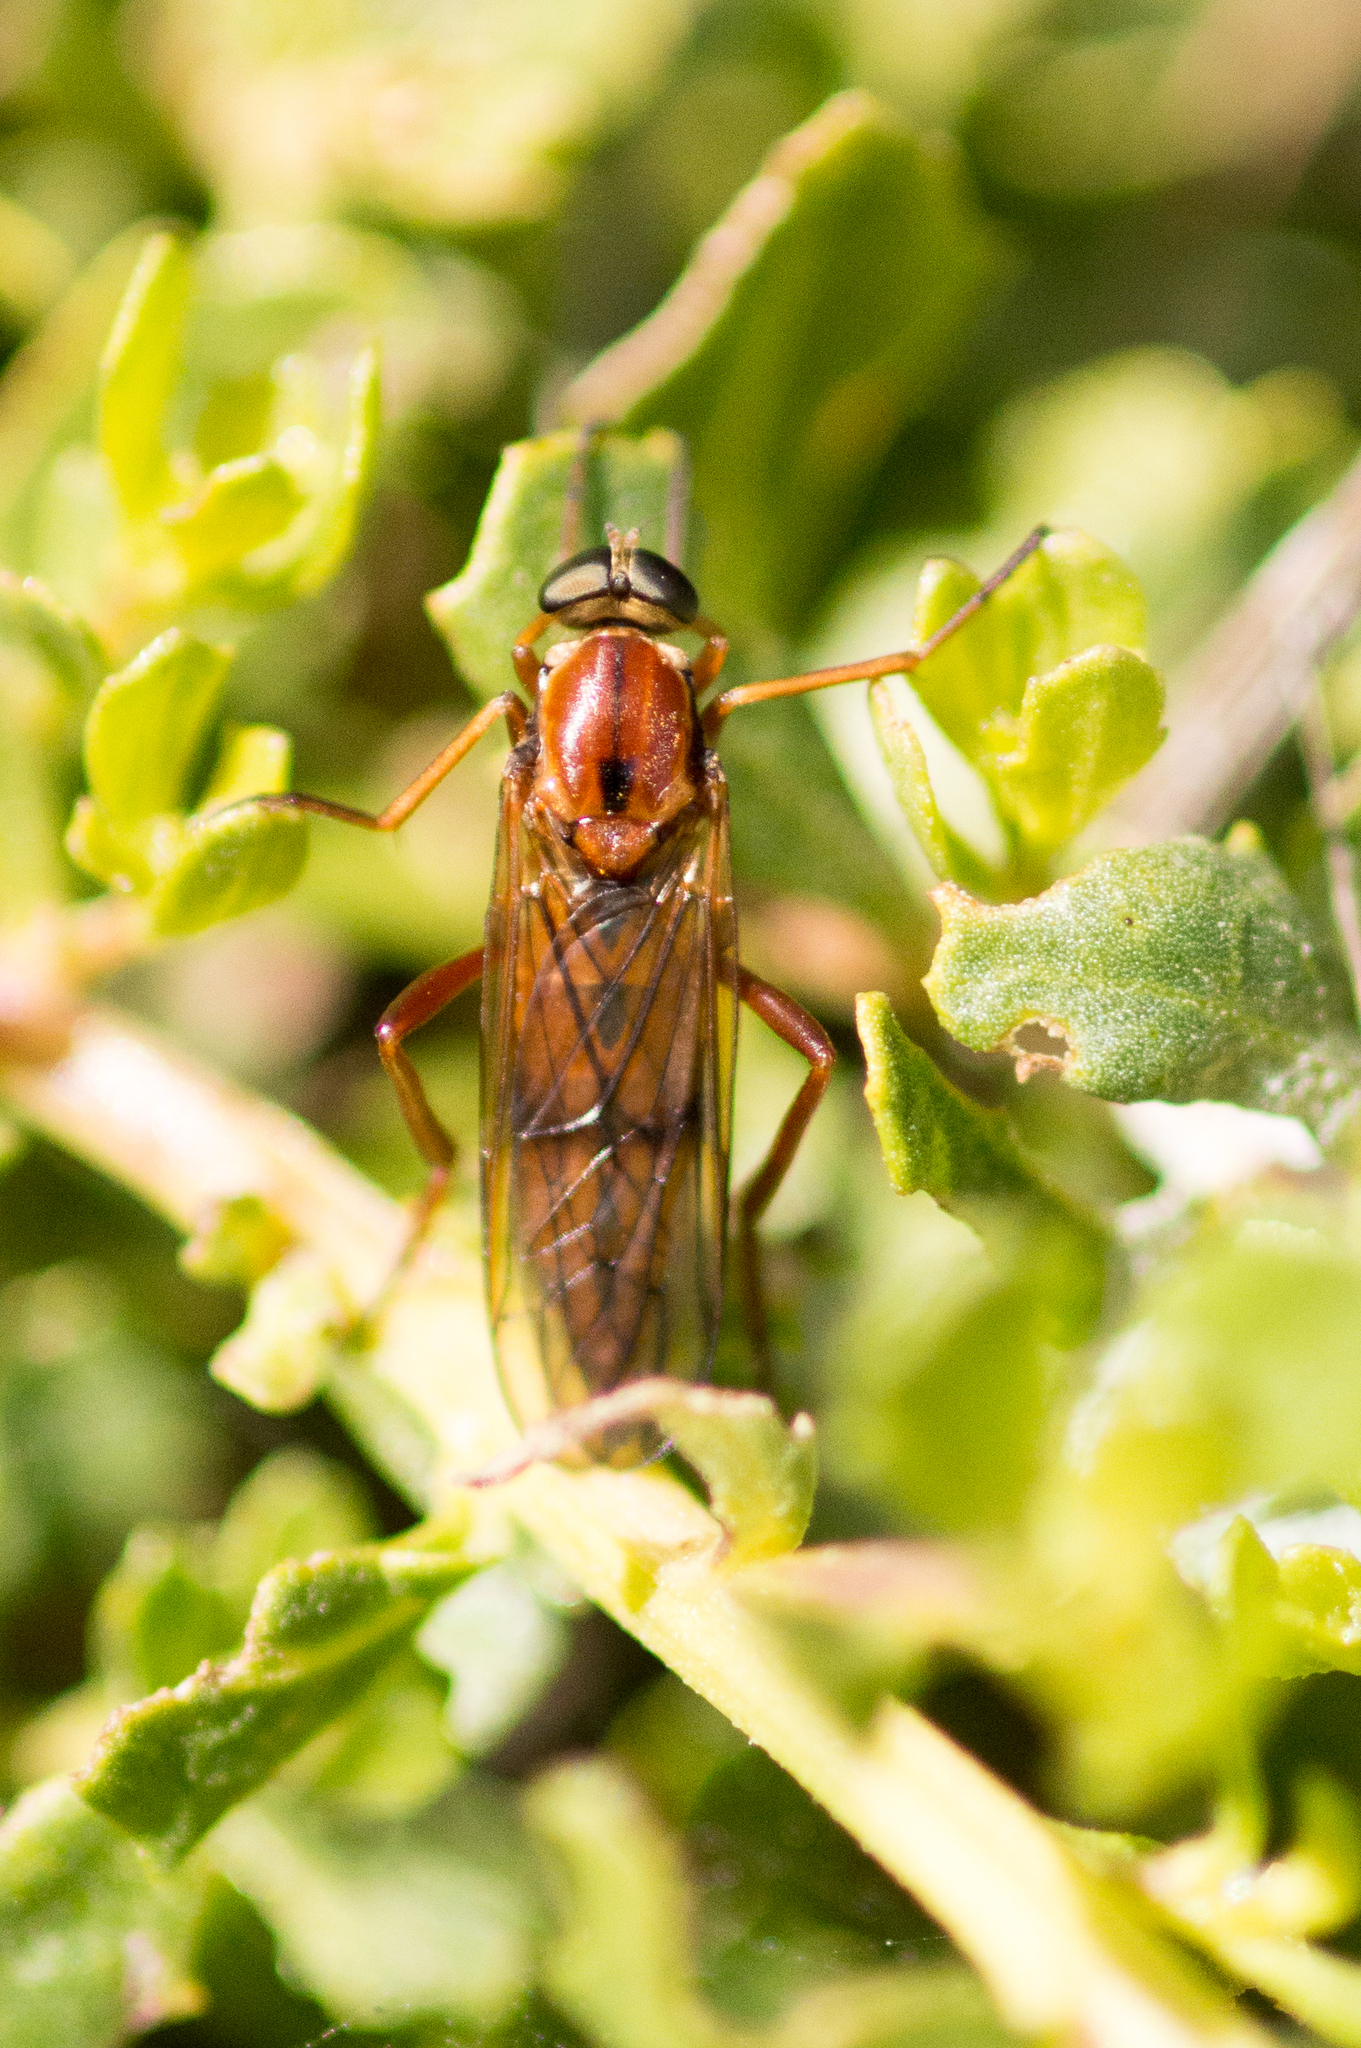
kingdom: Animalia
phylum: Arthropoda
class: Insecta
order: Diptera
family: Xylophagidae
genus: Dialysis
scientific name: Dialysis lauta
